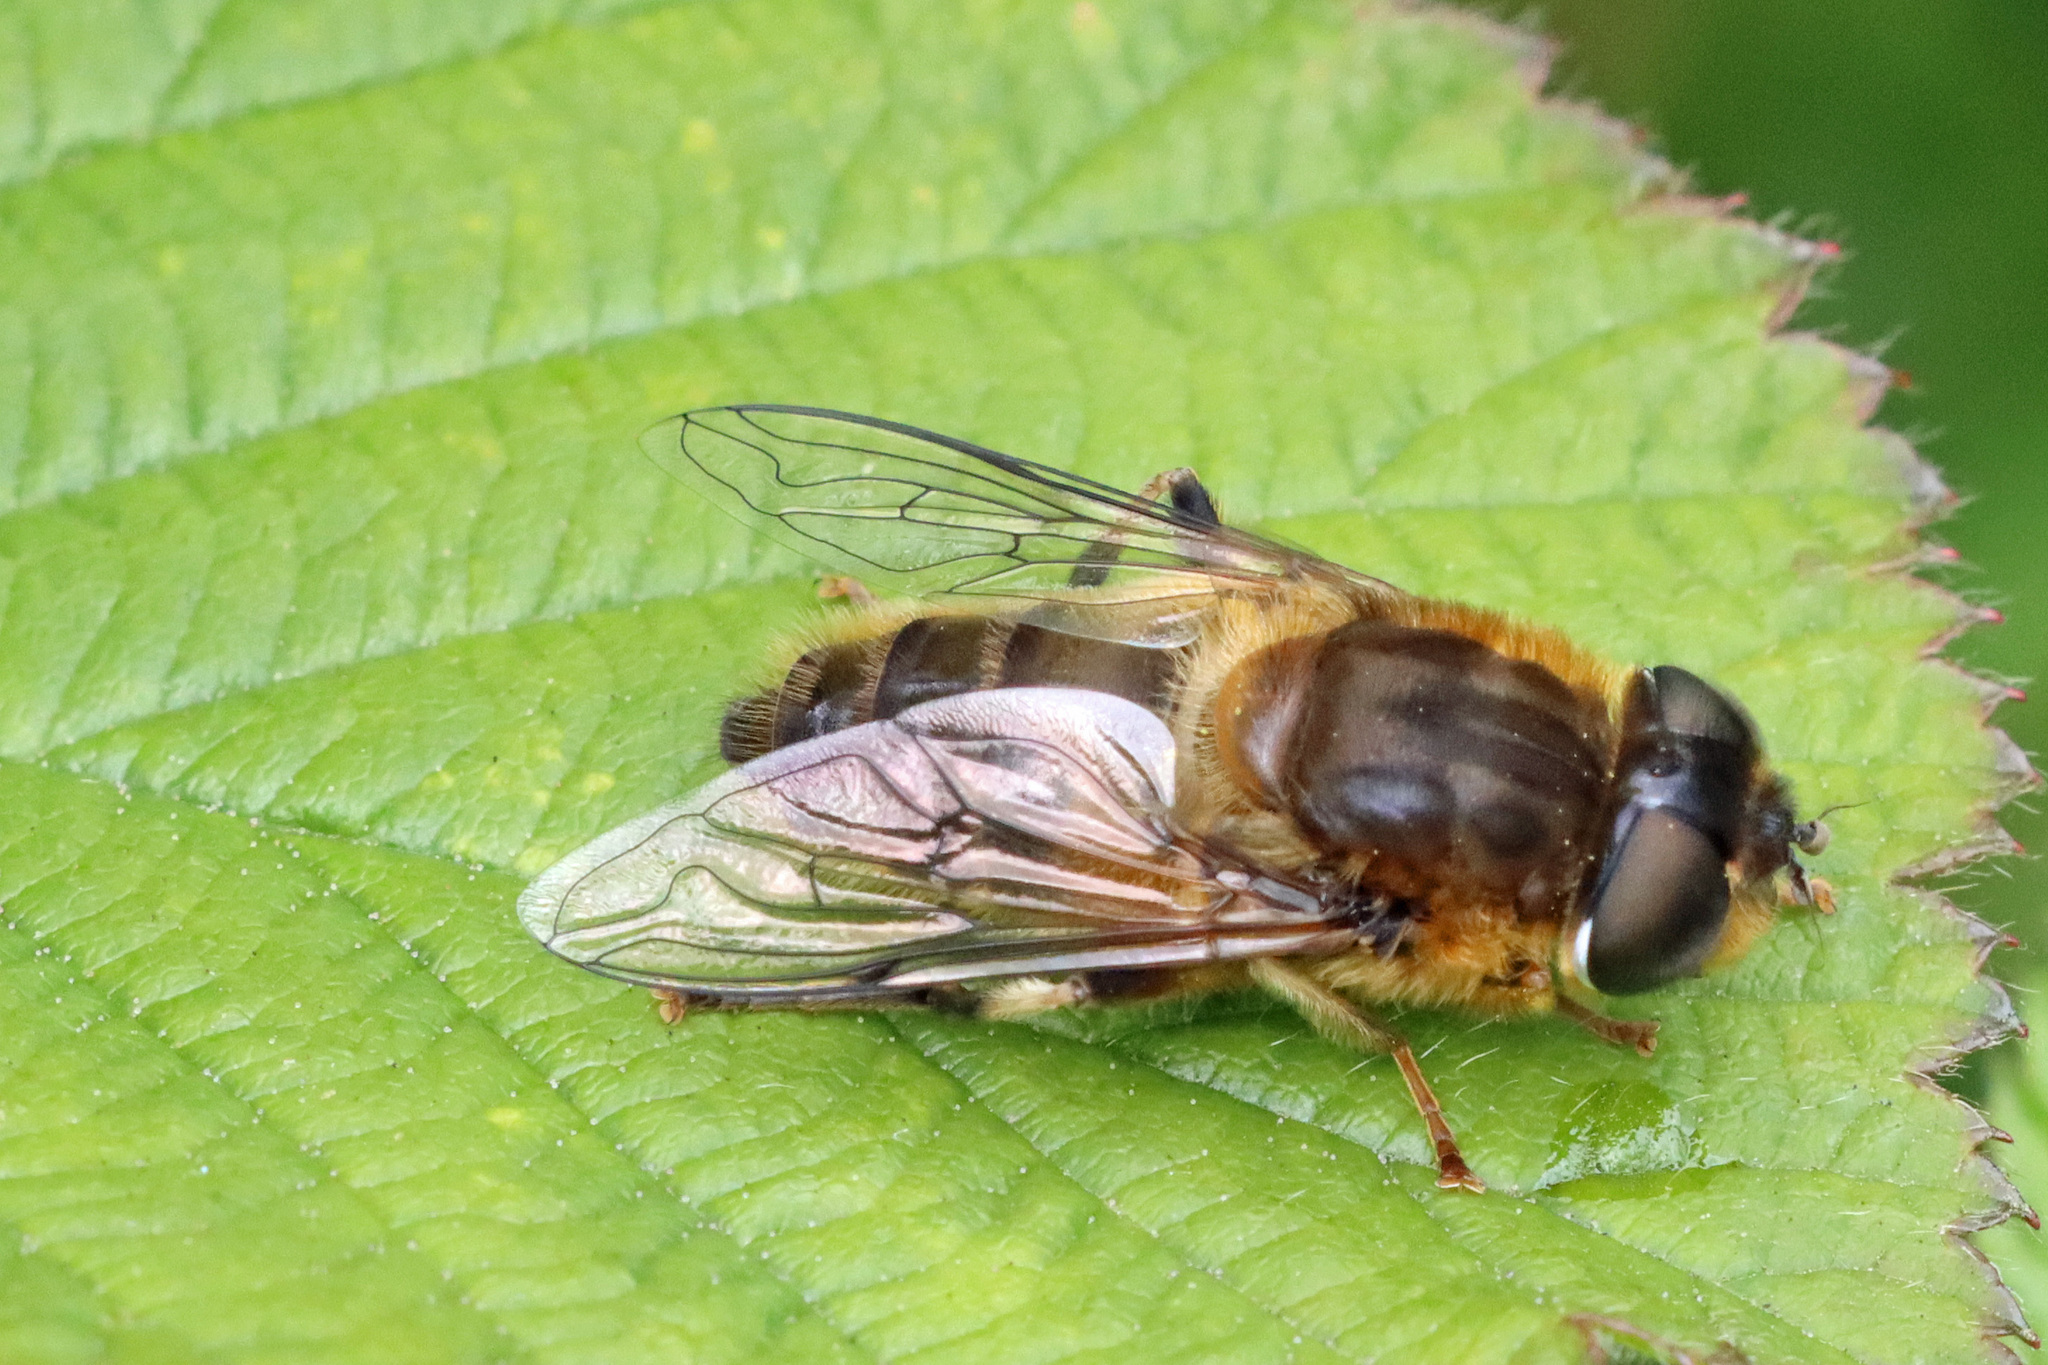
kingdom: Animalia
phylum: Arthropoda
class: Insecta
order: Diptera
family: Syrphidae
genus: Eristalis
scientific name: Eristalis pertinax
